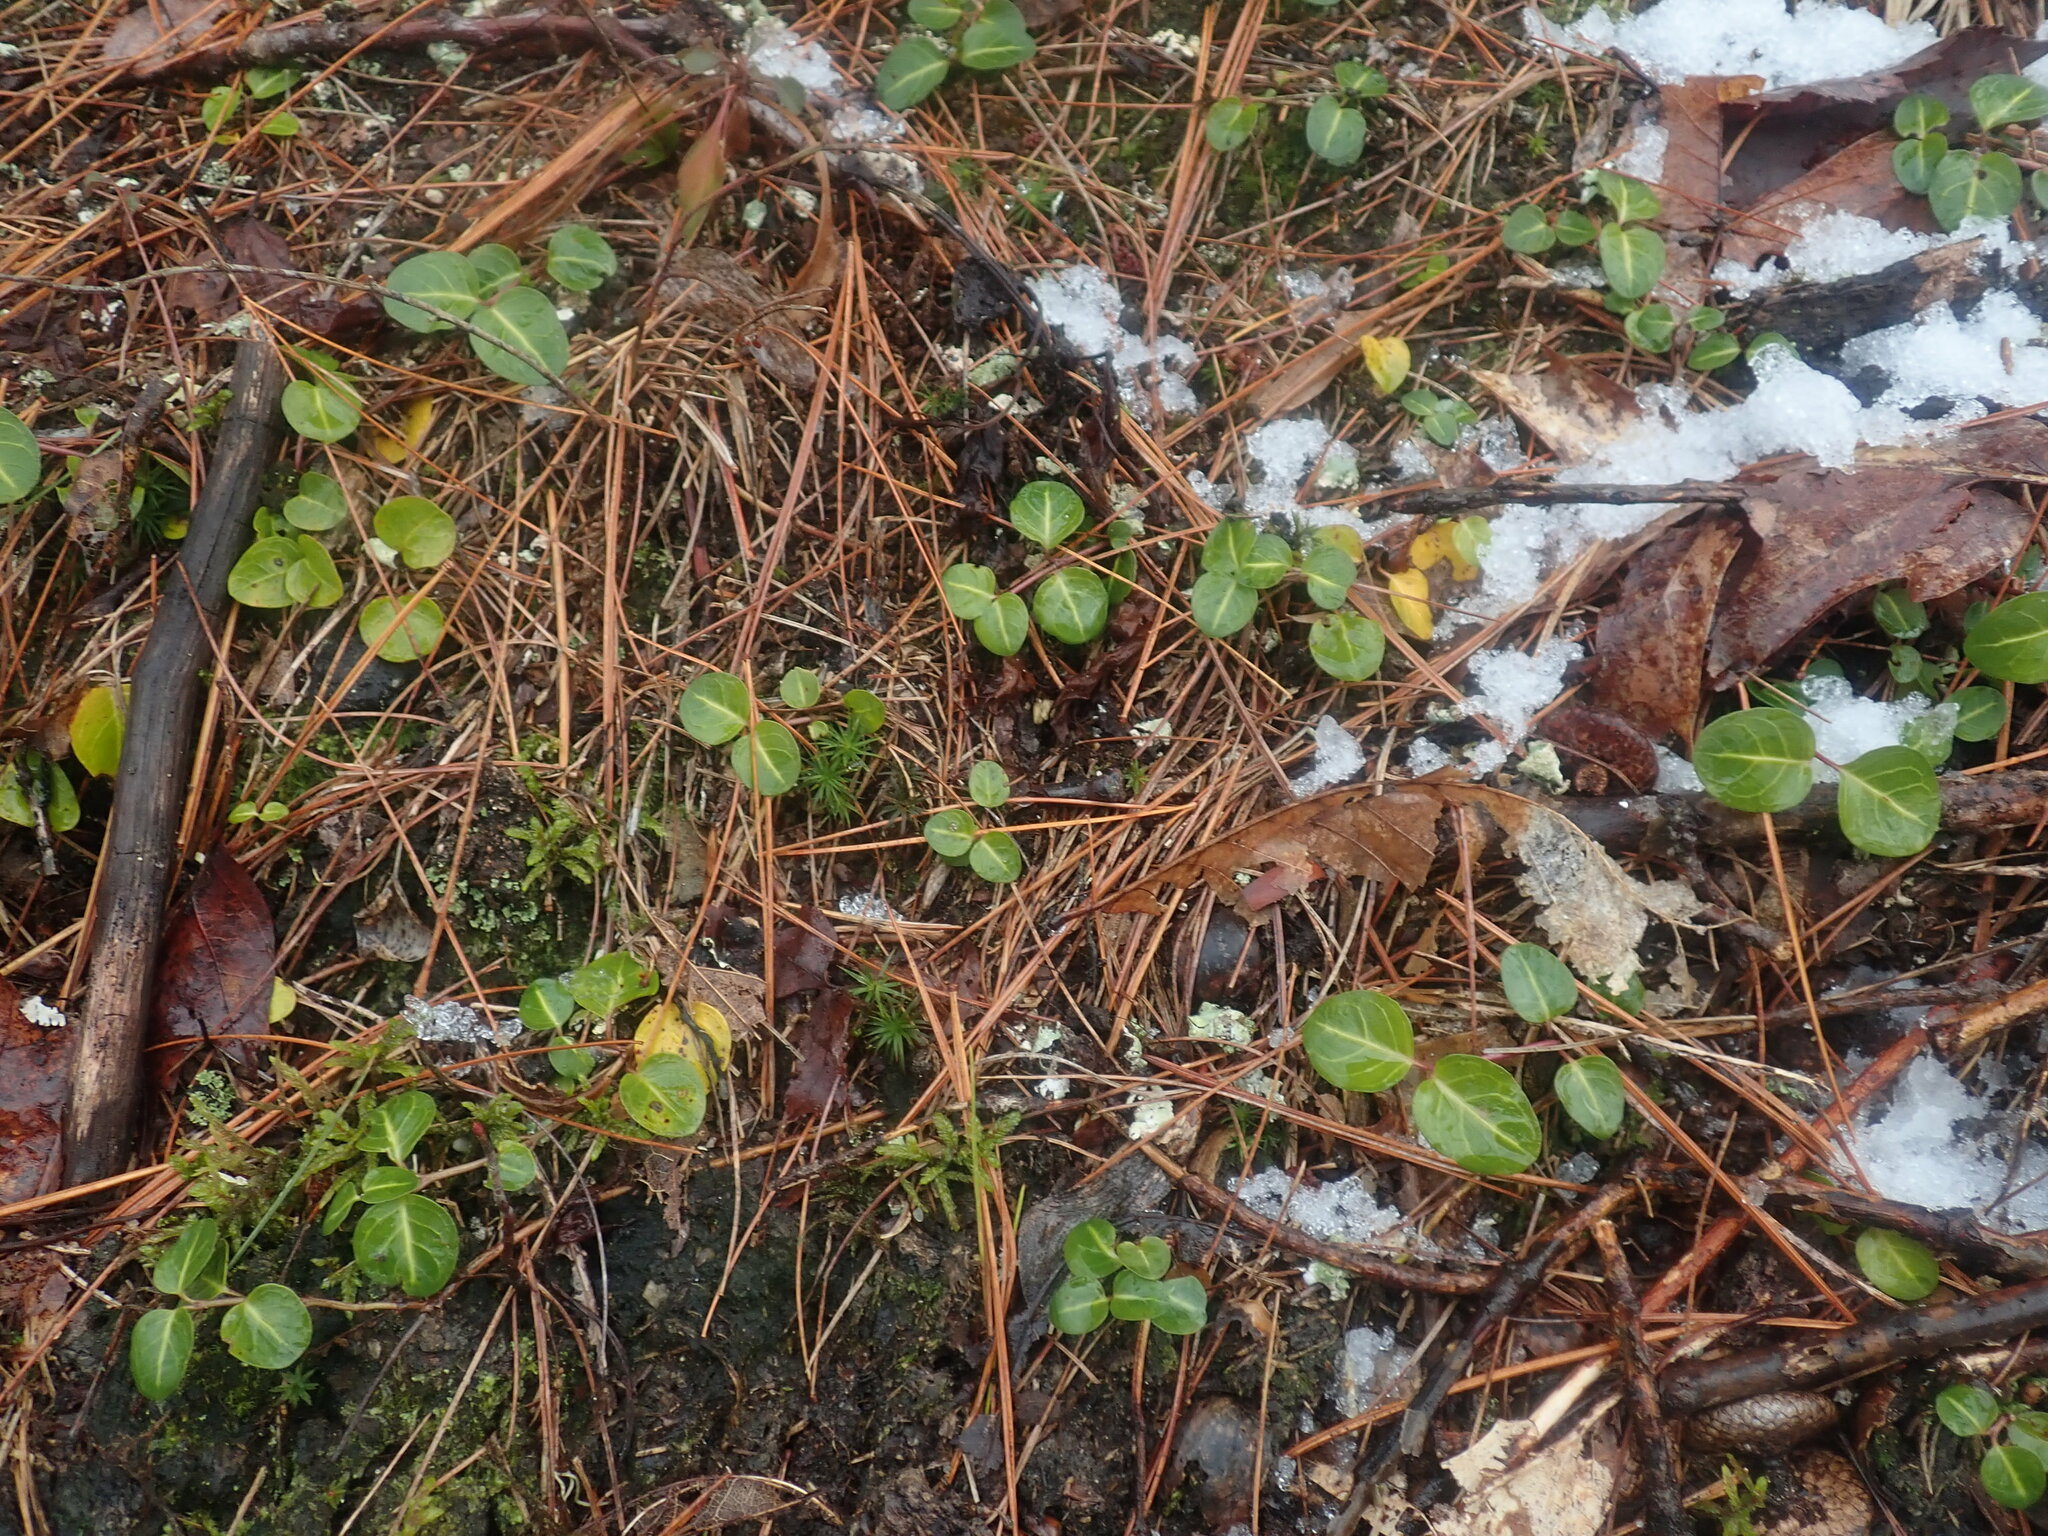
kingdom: Plantae
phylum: Tracheophyta
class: Magnoliopsida
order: Gentianales
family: Rubiaceae
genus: Mitchella
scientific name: Mitchella repens
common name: Partridge-berry
